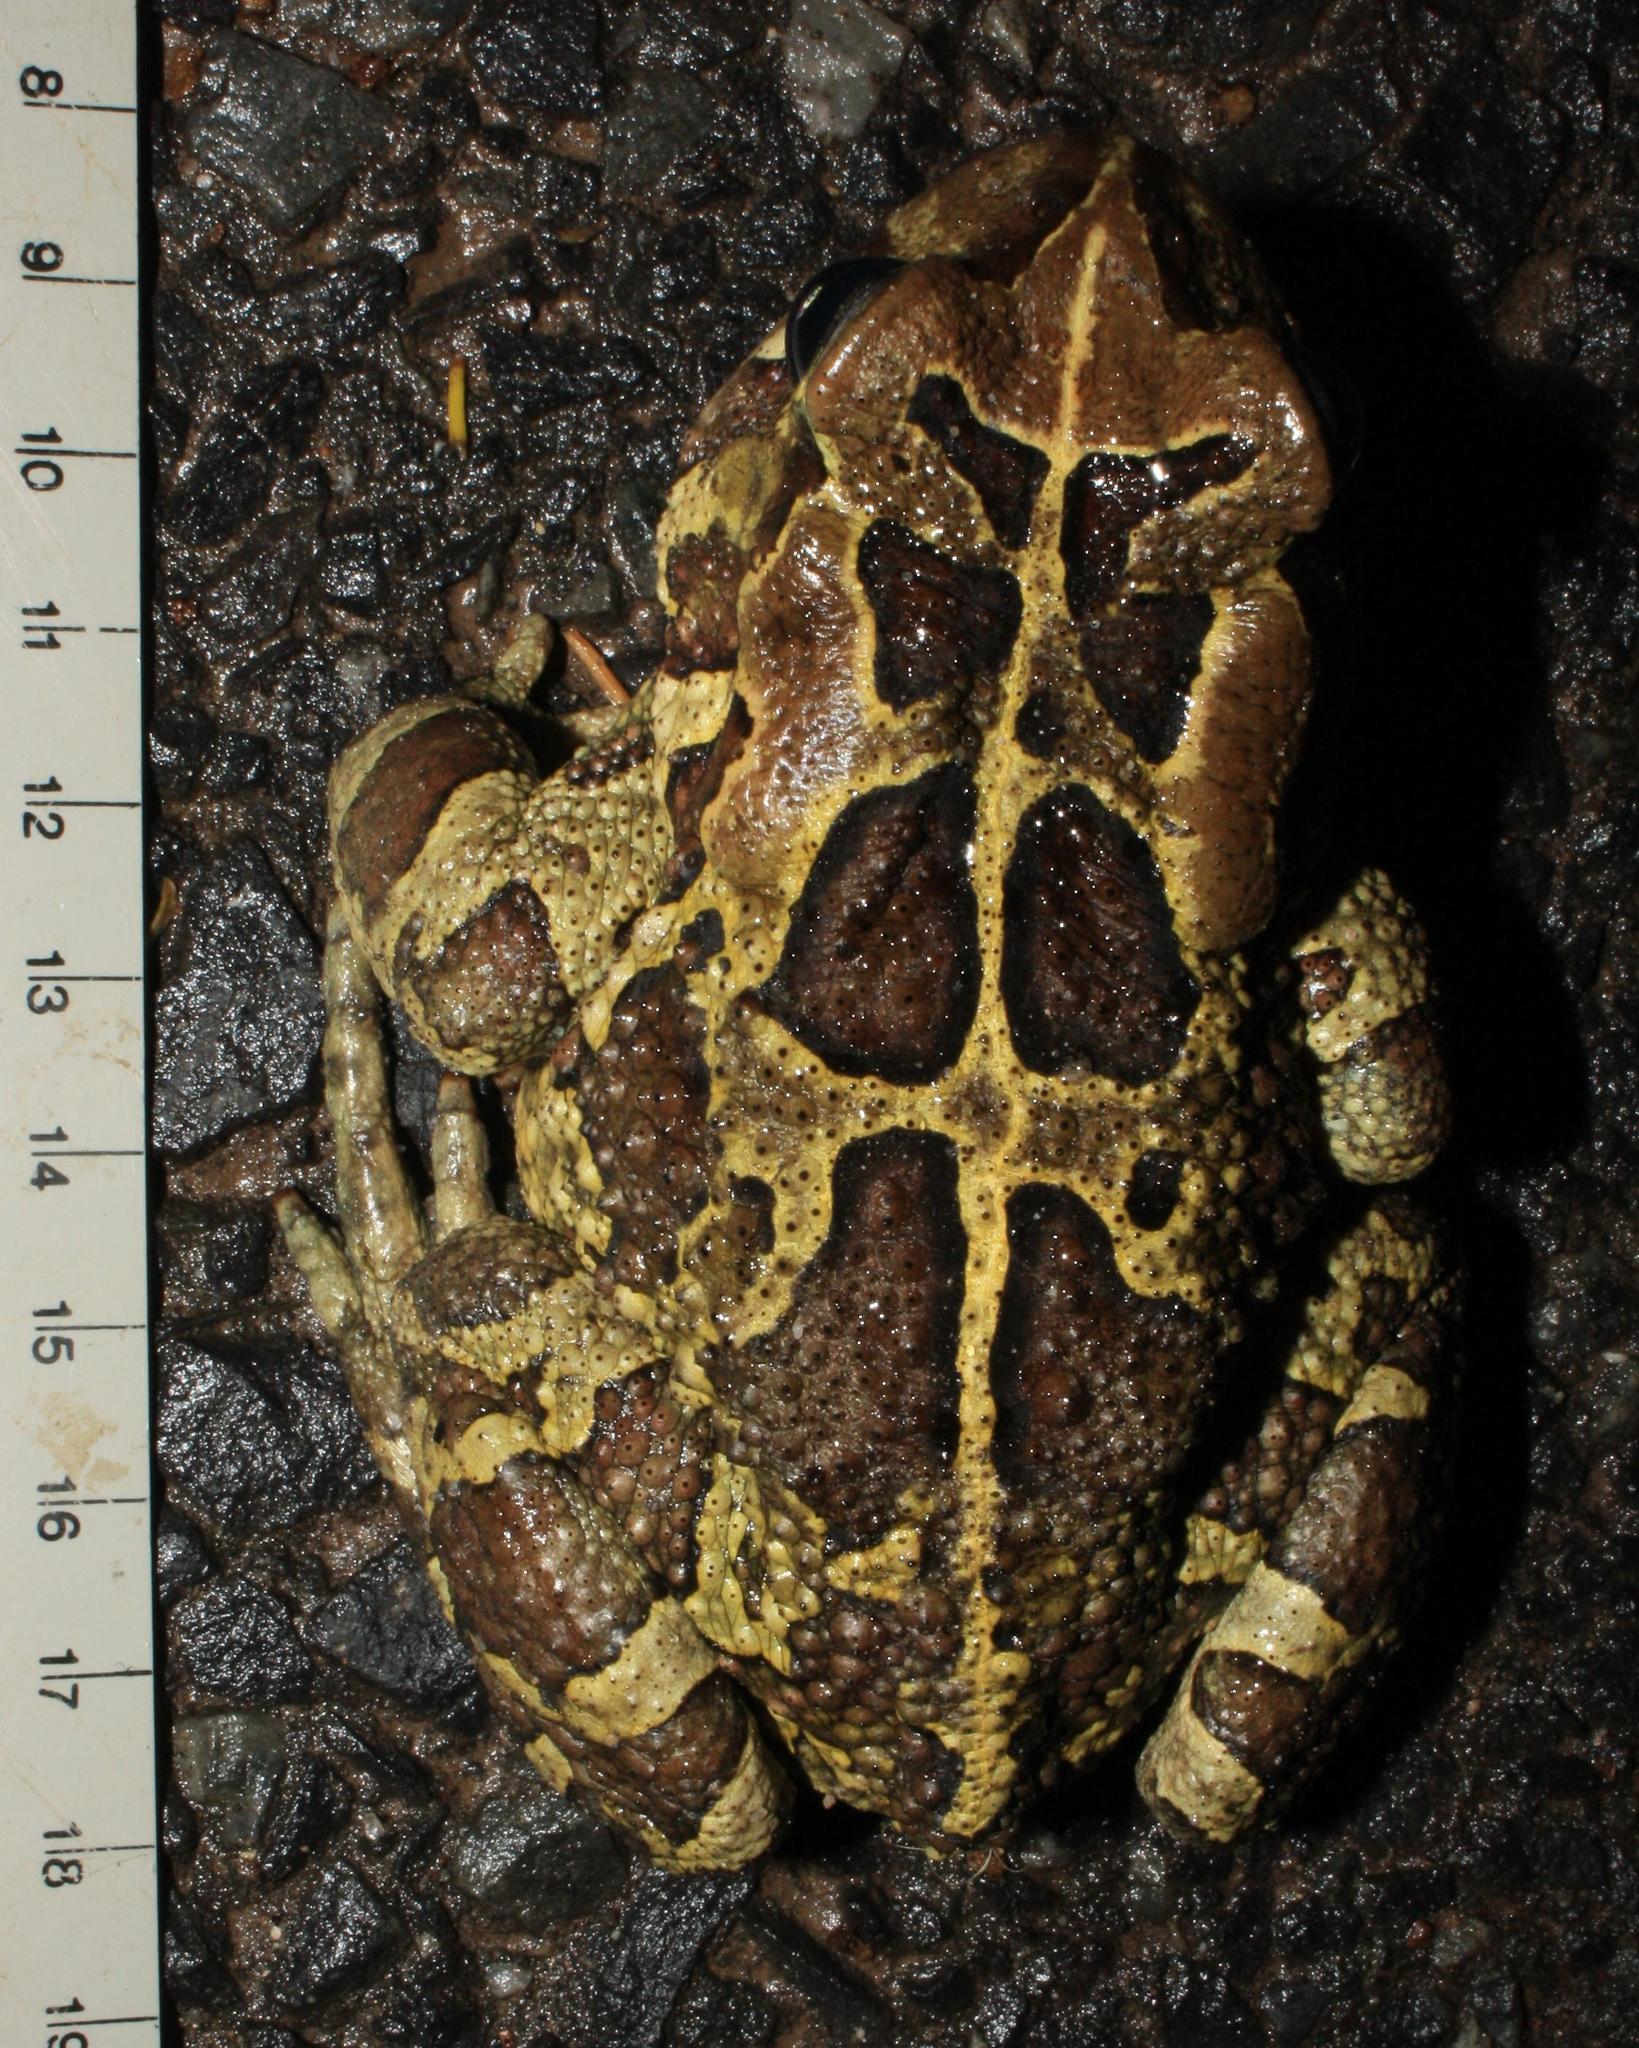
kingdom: Animalia
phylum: Chordata
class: Amphibia
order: Anura
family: Bufonidae
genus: Sclerophrys
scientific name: Sclerophrys pantherina
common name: Panther toad
